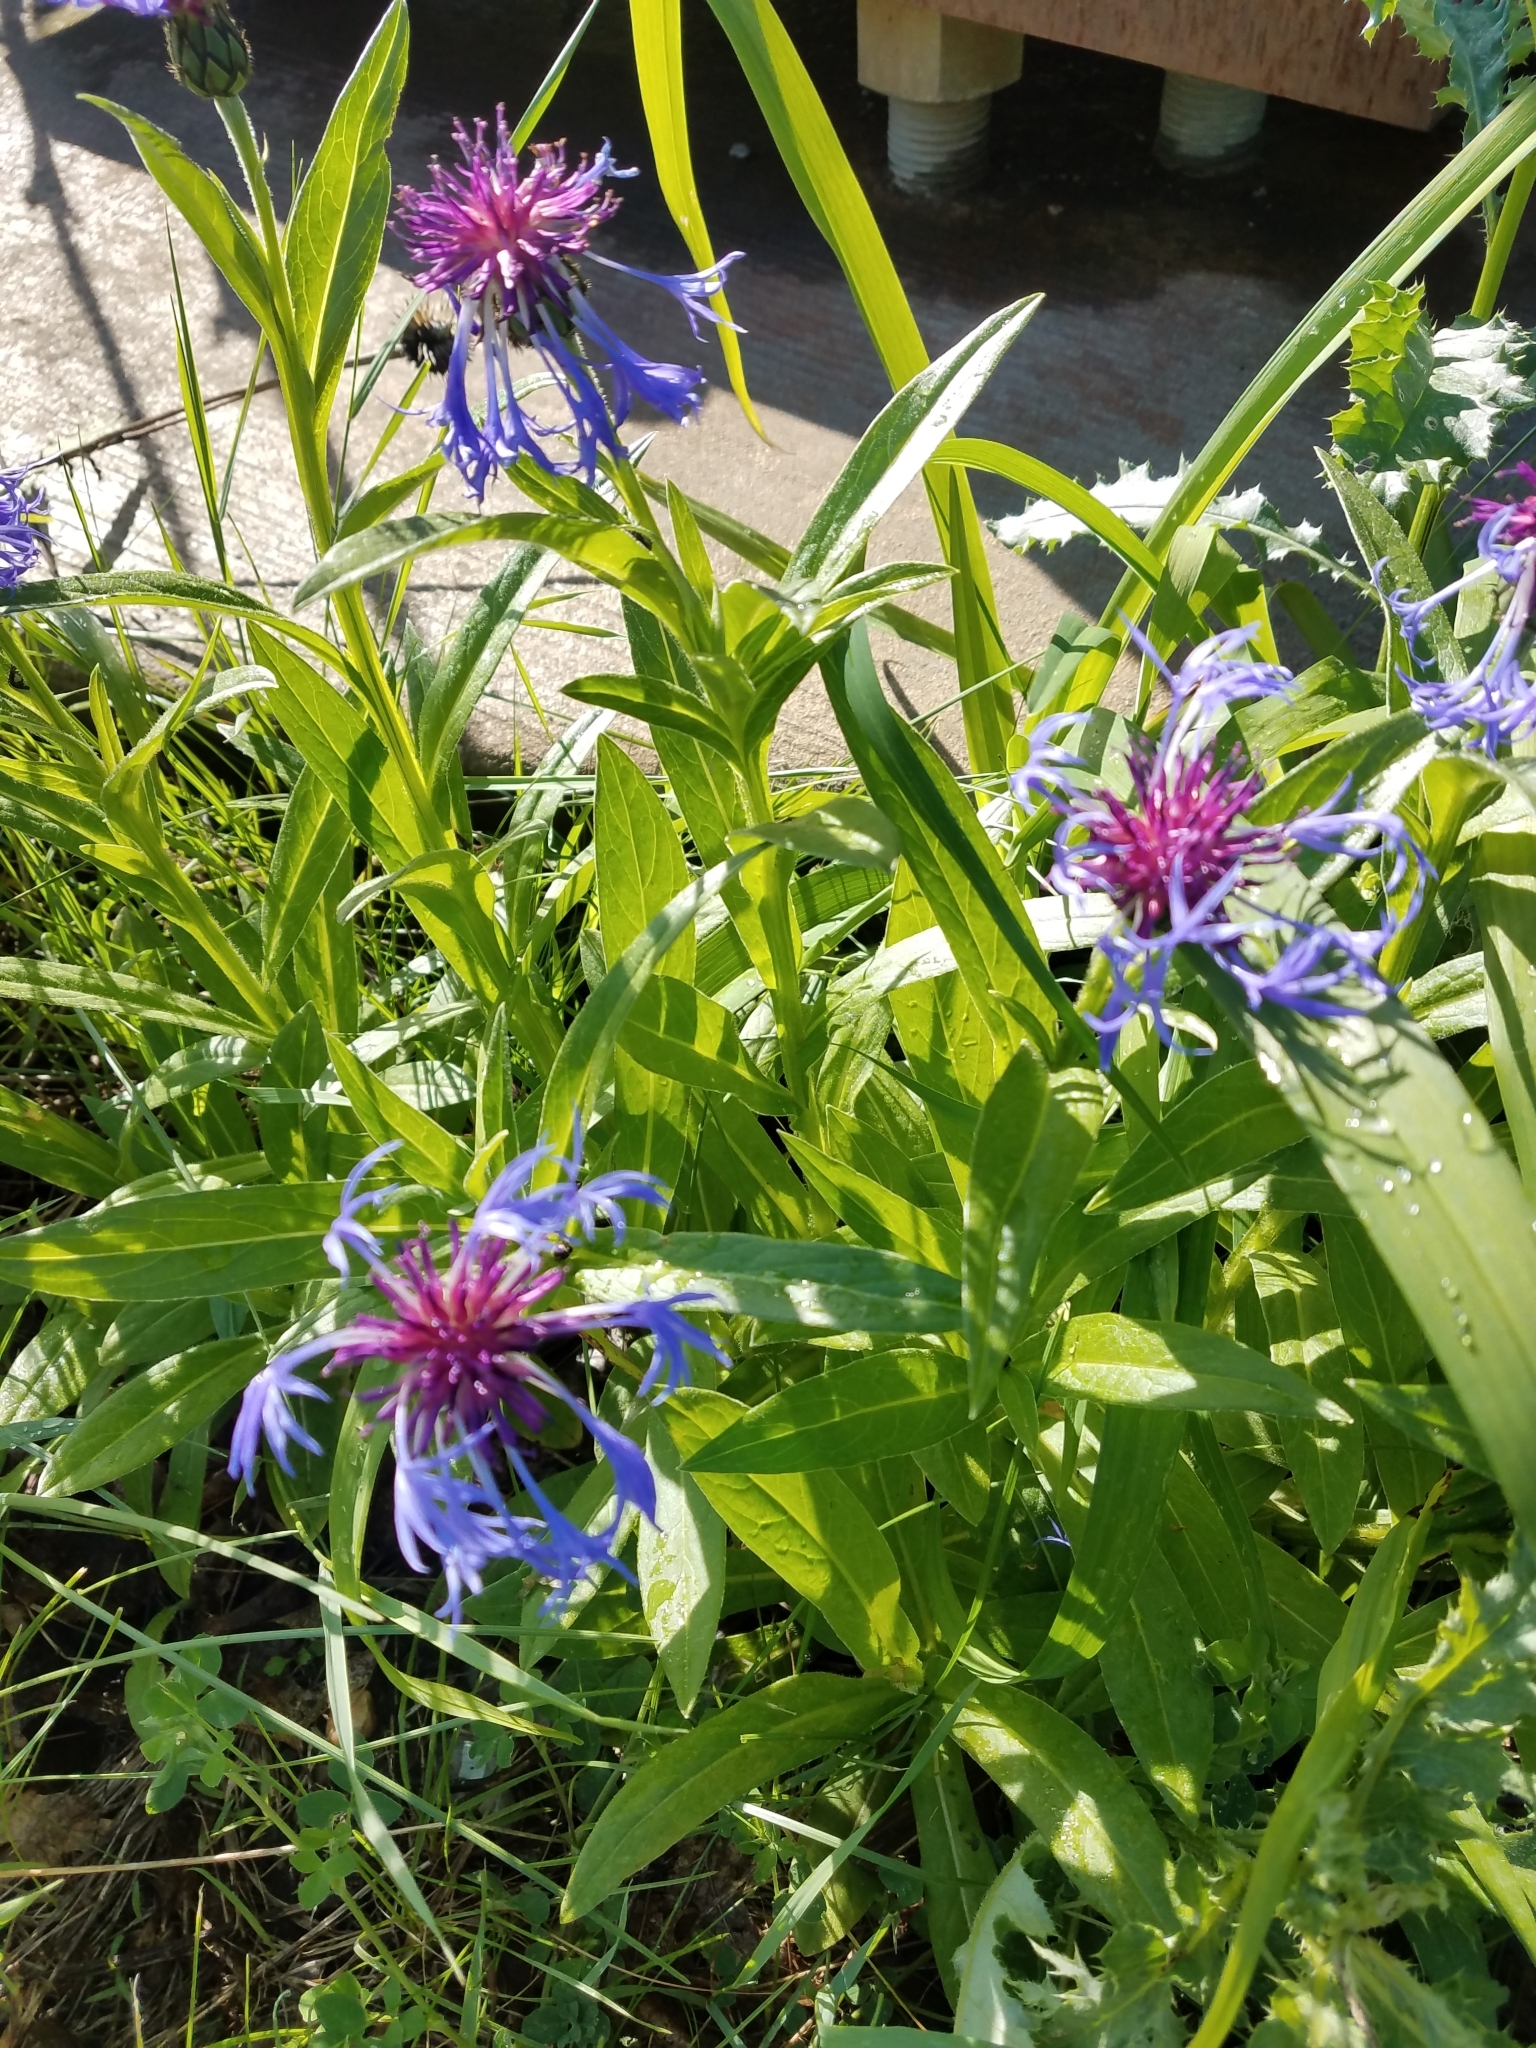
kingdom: Plantae
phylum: Tracheophyta
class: Magnoliopsida
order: Asterales
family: Asteraceae
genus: Centaurea
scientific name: Centaurea montana
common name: Perennial cornflower
